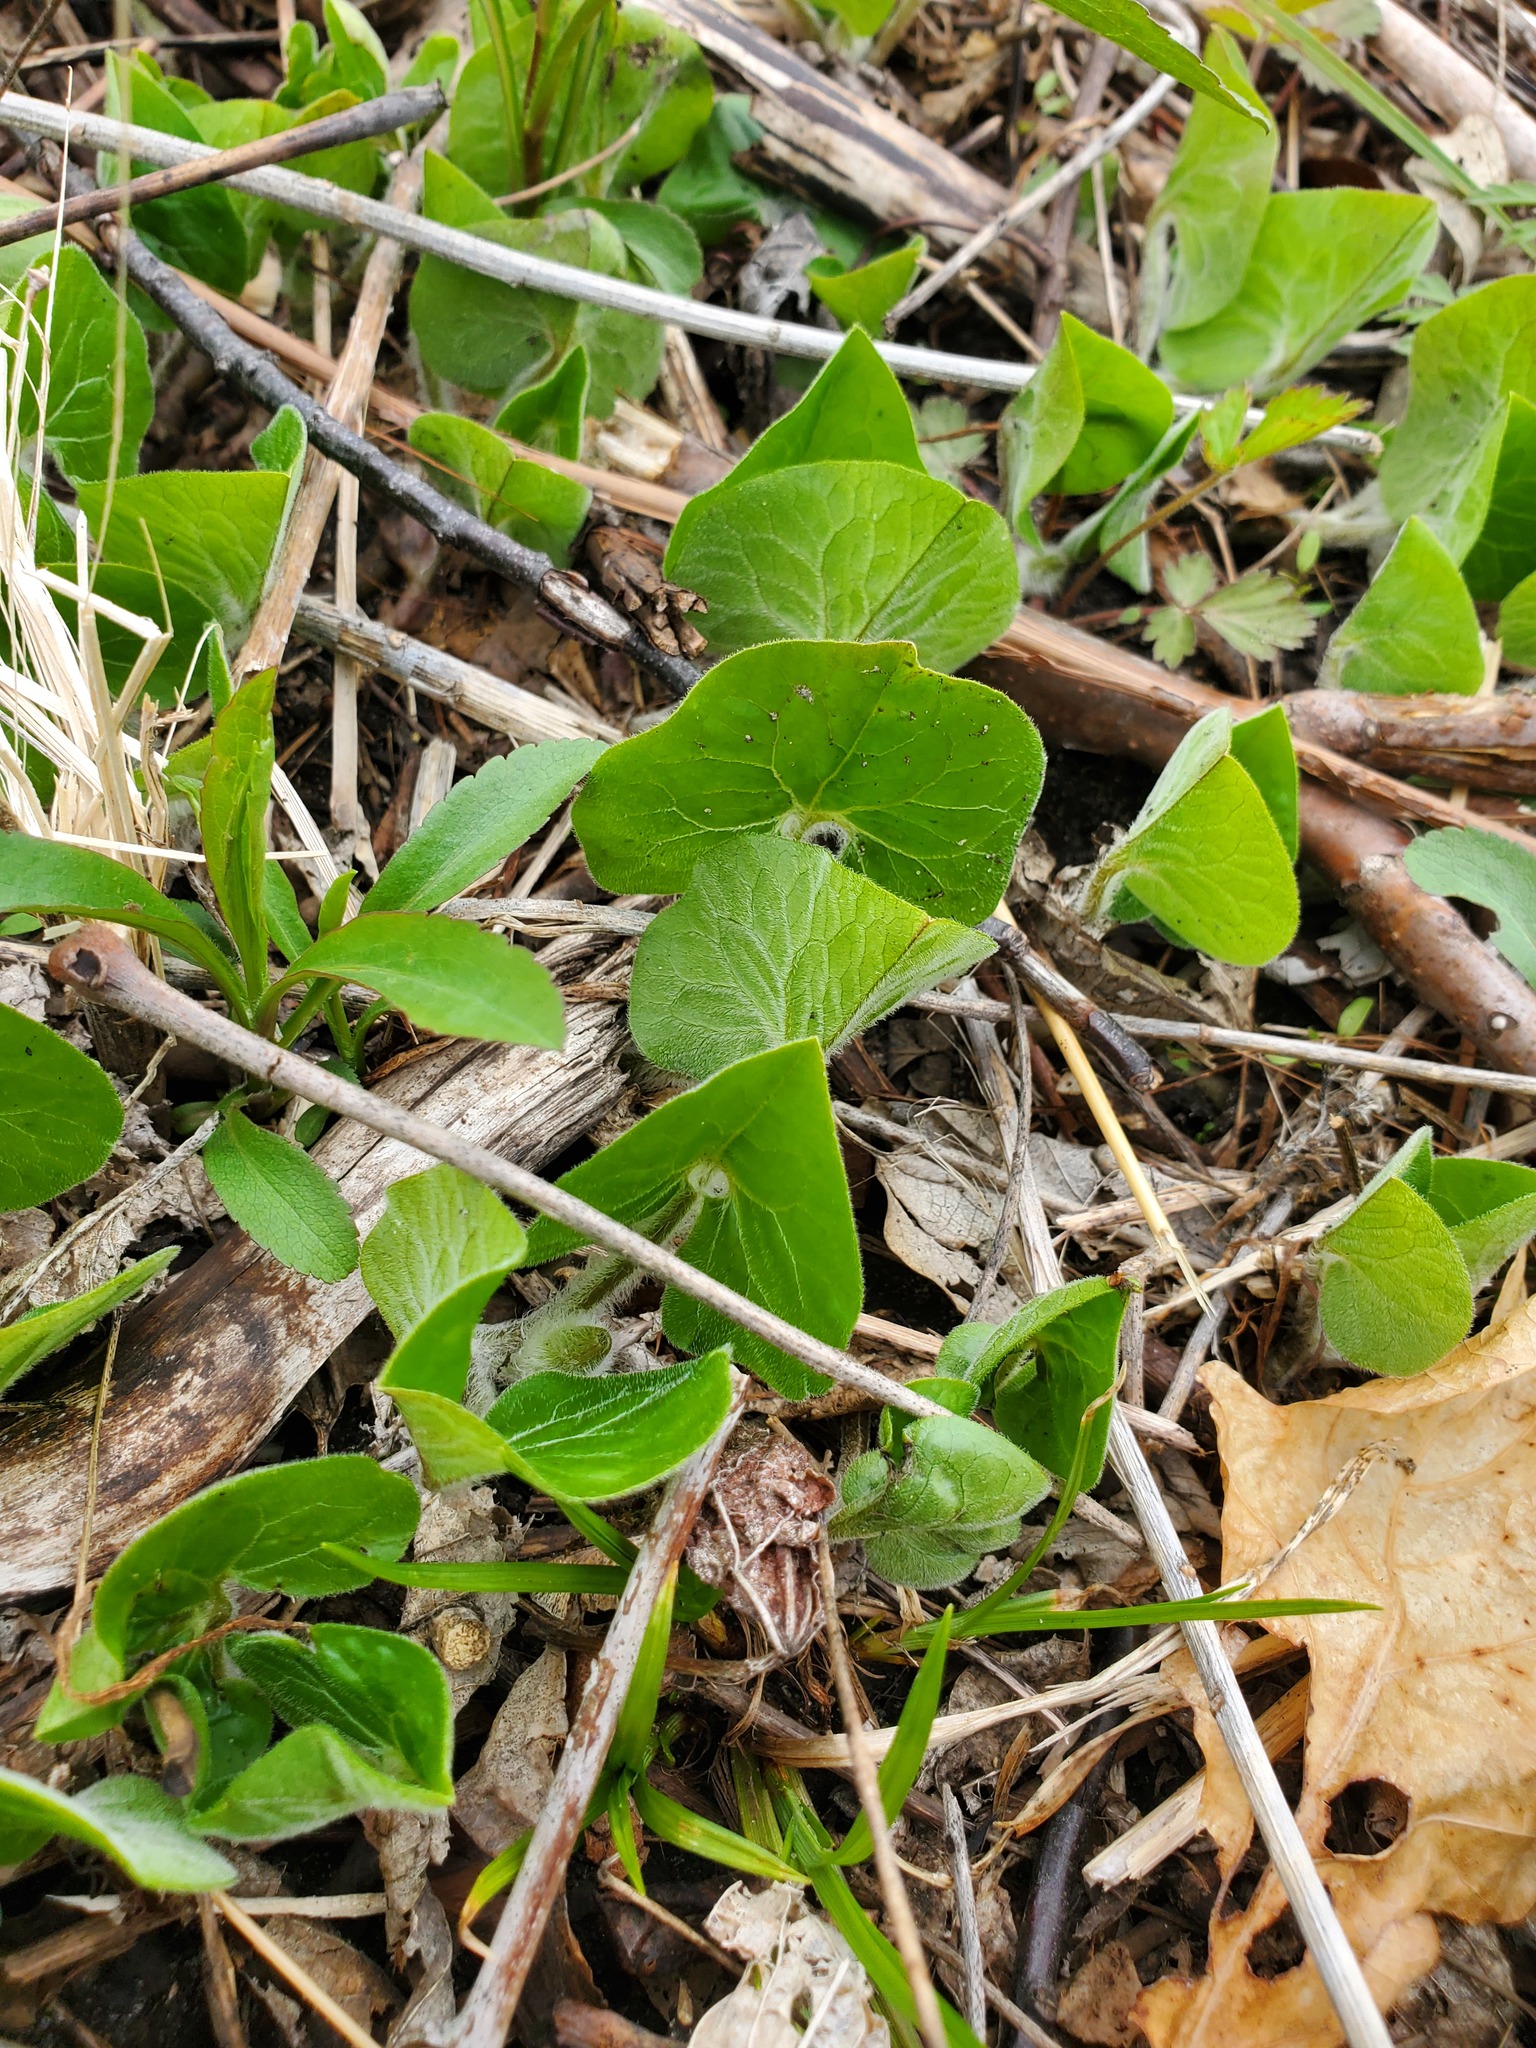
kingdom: Plantae
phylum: Tracheophyta
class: Magnoliopsida
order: Piperales
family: Aristolochiaceae
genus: Asarum
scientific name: Asarum canadense
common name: Wild ginger
